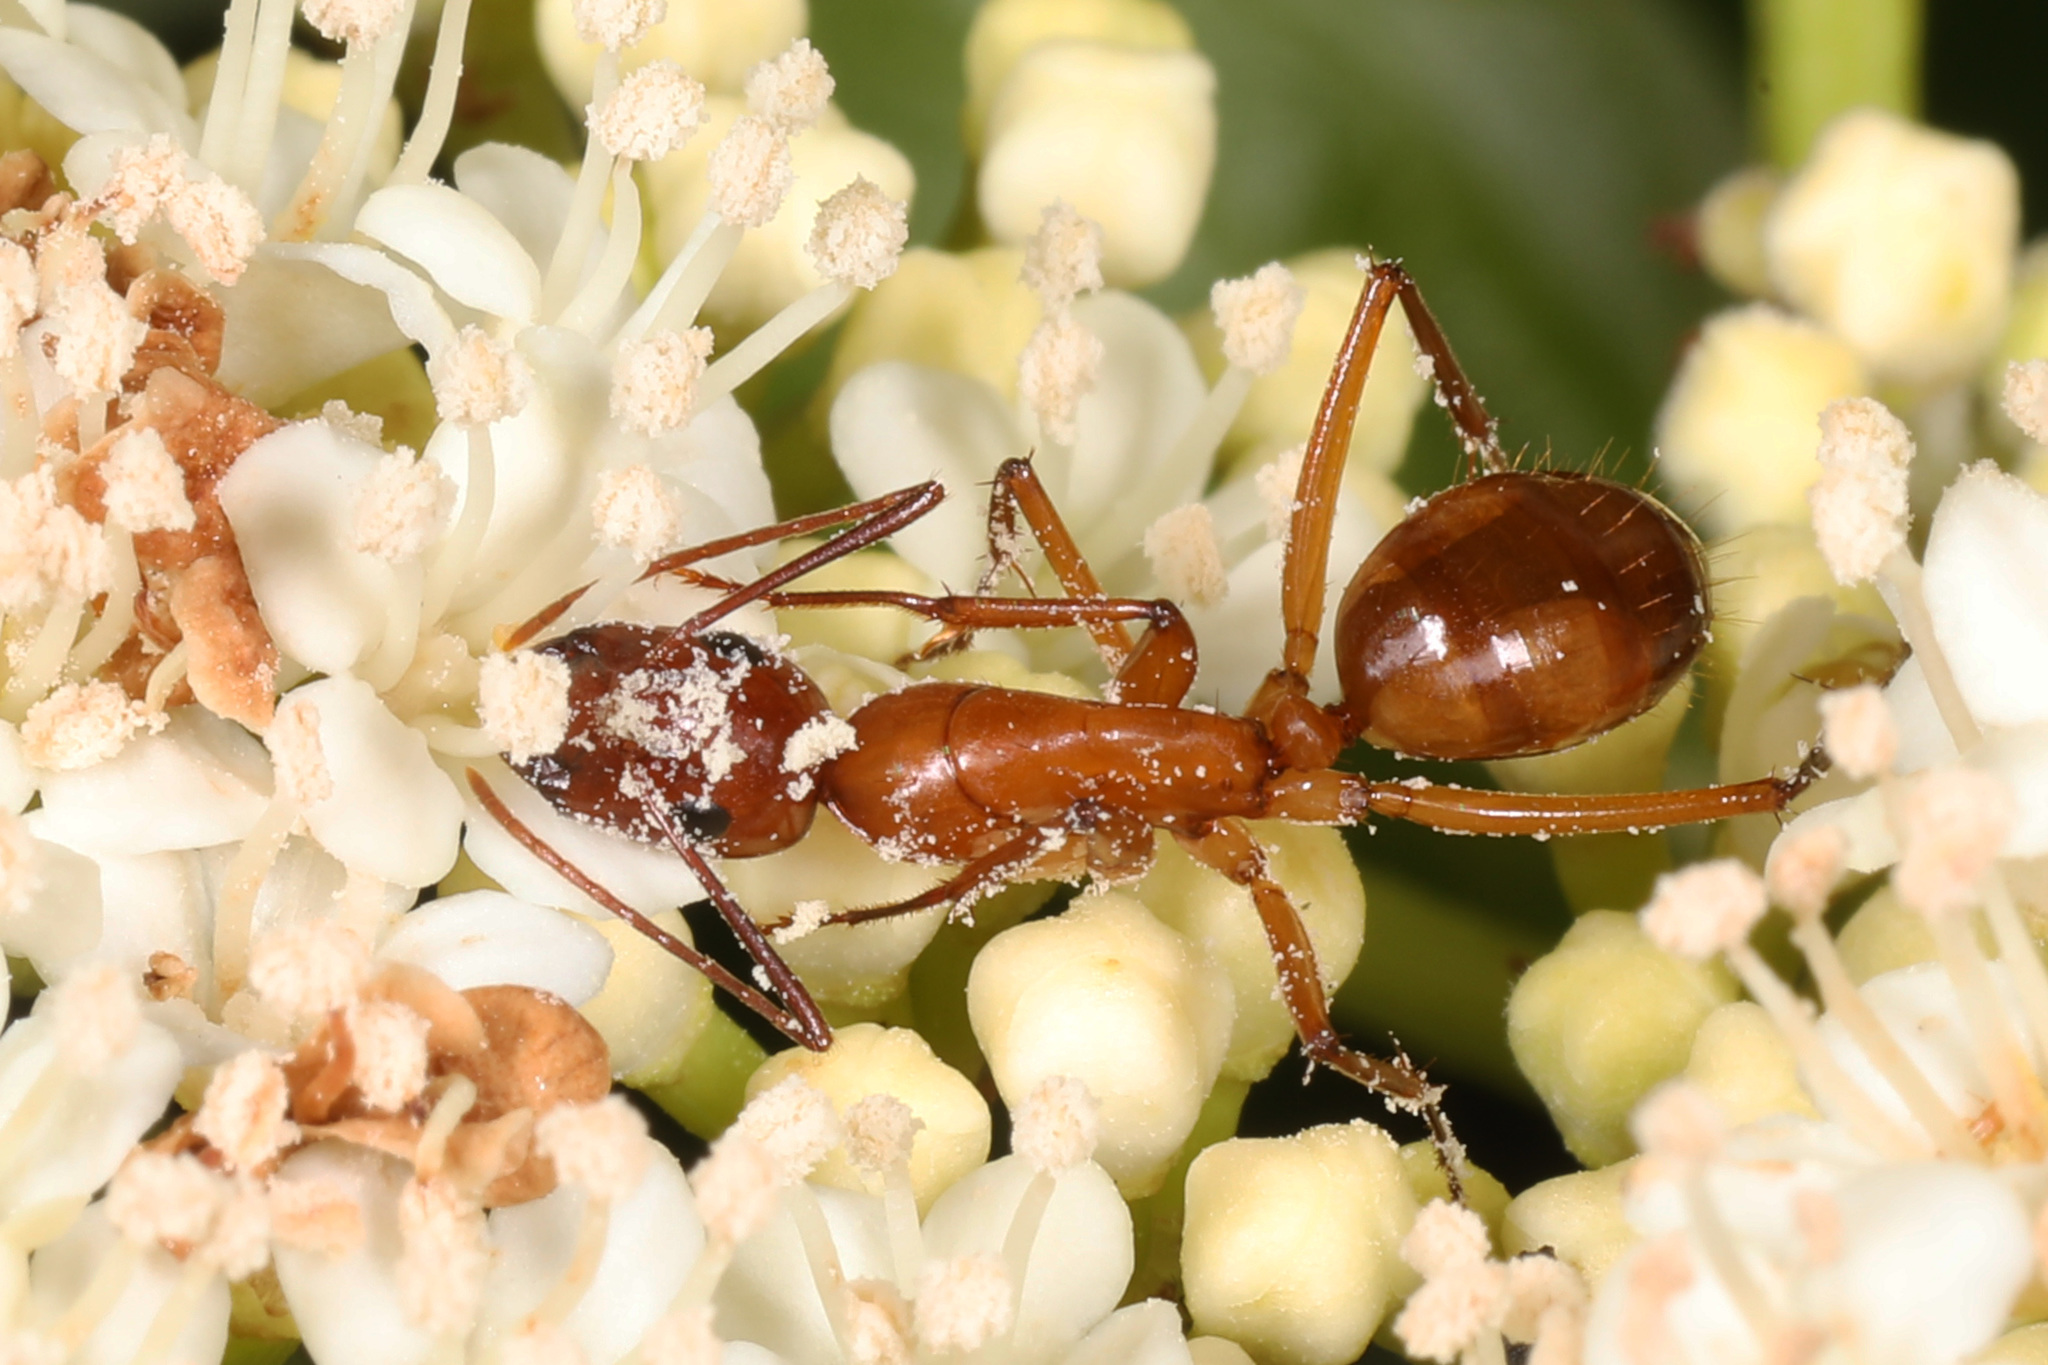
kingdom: Animalia
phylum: Arthropoda
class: Insecta
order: Hymenoptera
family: Formicidae
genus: Camponotus
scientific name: Camponotus castaneus
